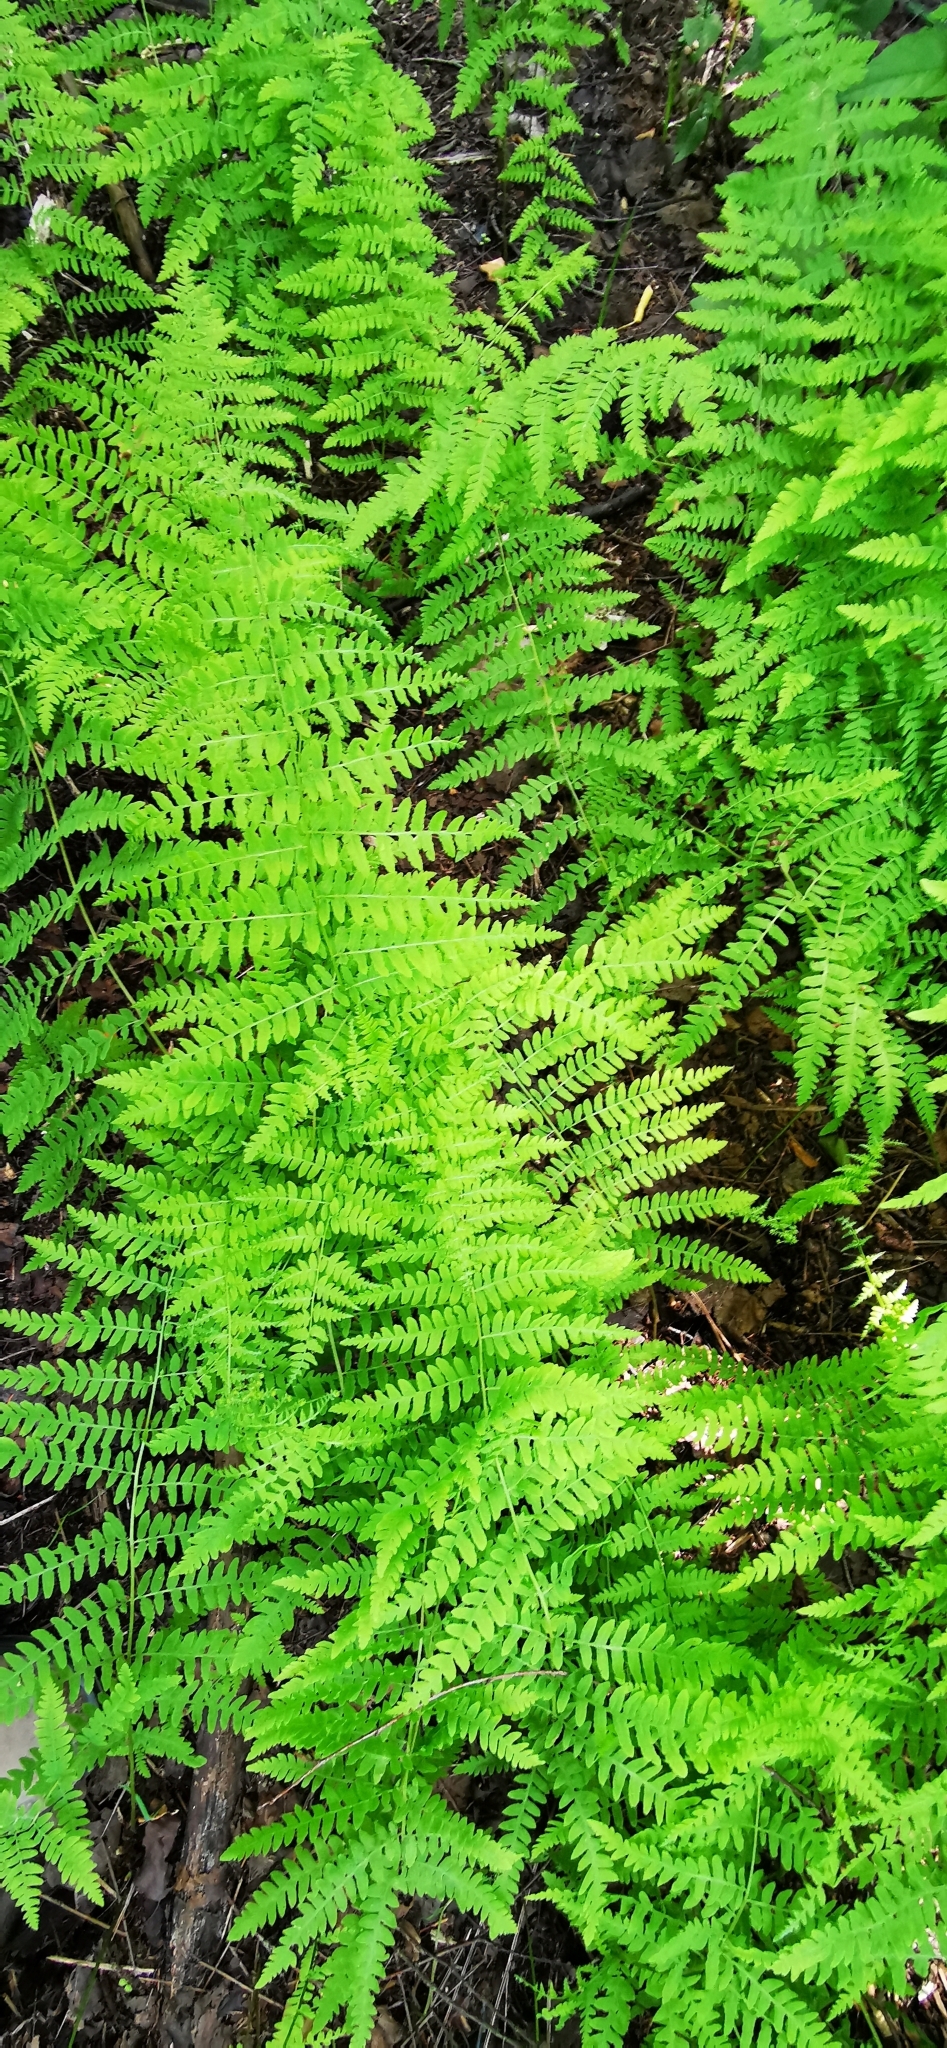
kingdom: Plantae
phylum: Tracheophyta
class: Polypodiopsida
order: Polypodiales
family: Thelypteridaceae
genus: Thelypteris
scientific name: Thelypteris palustris
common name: Marsh fern
